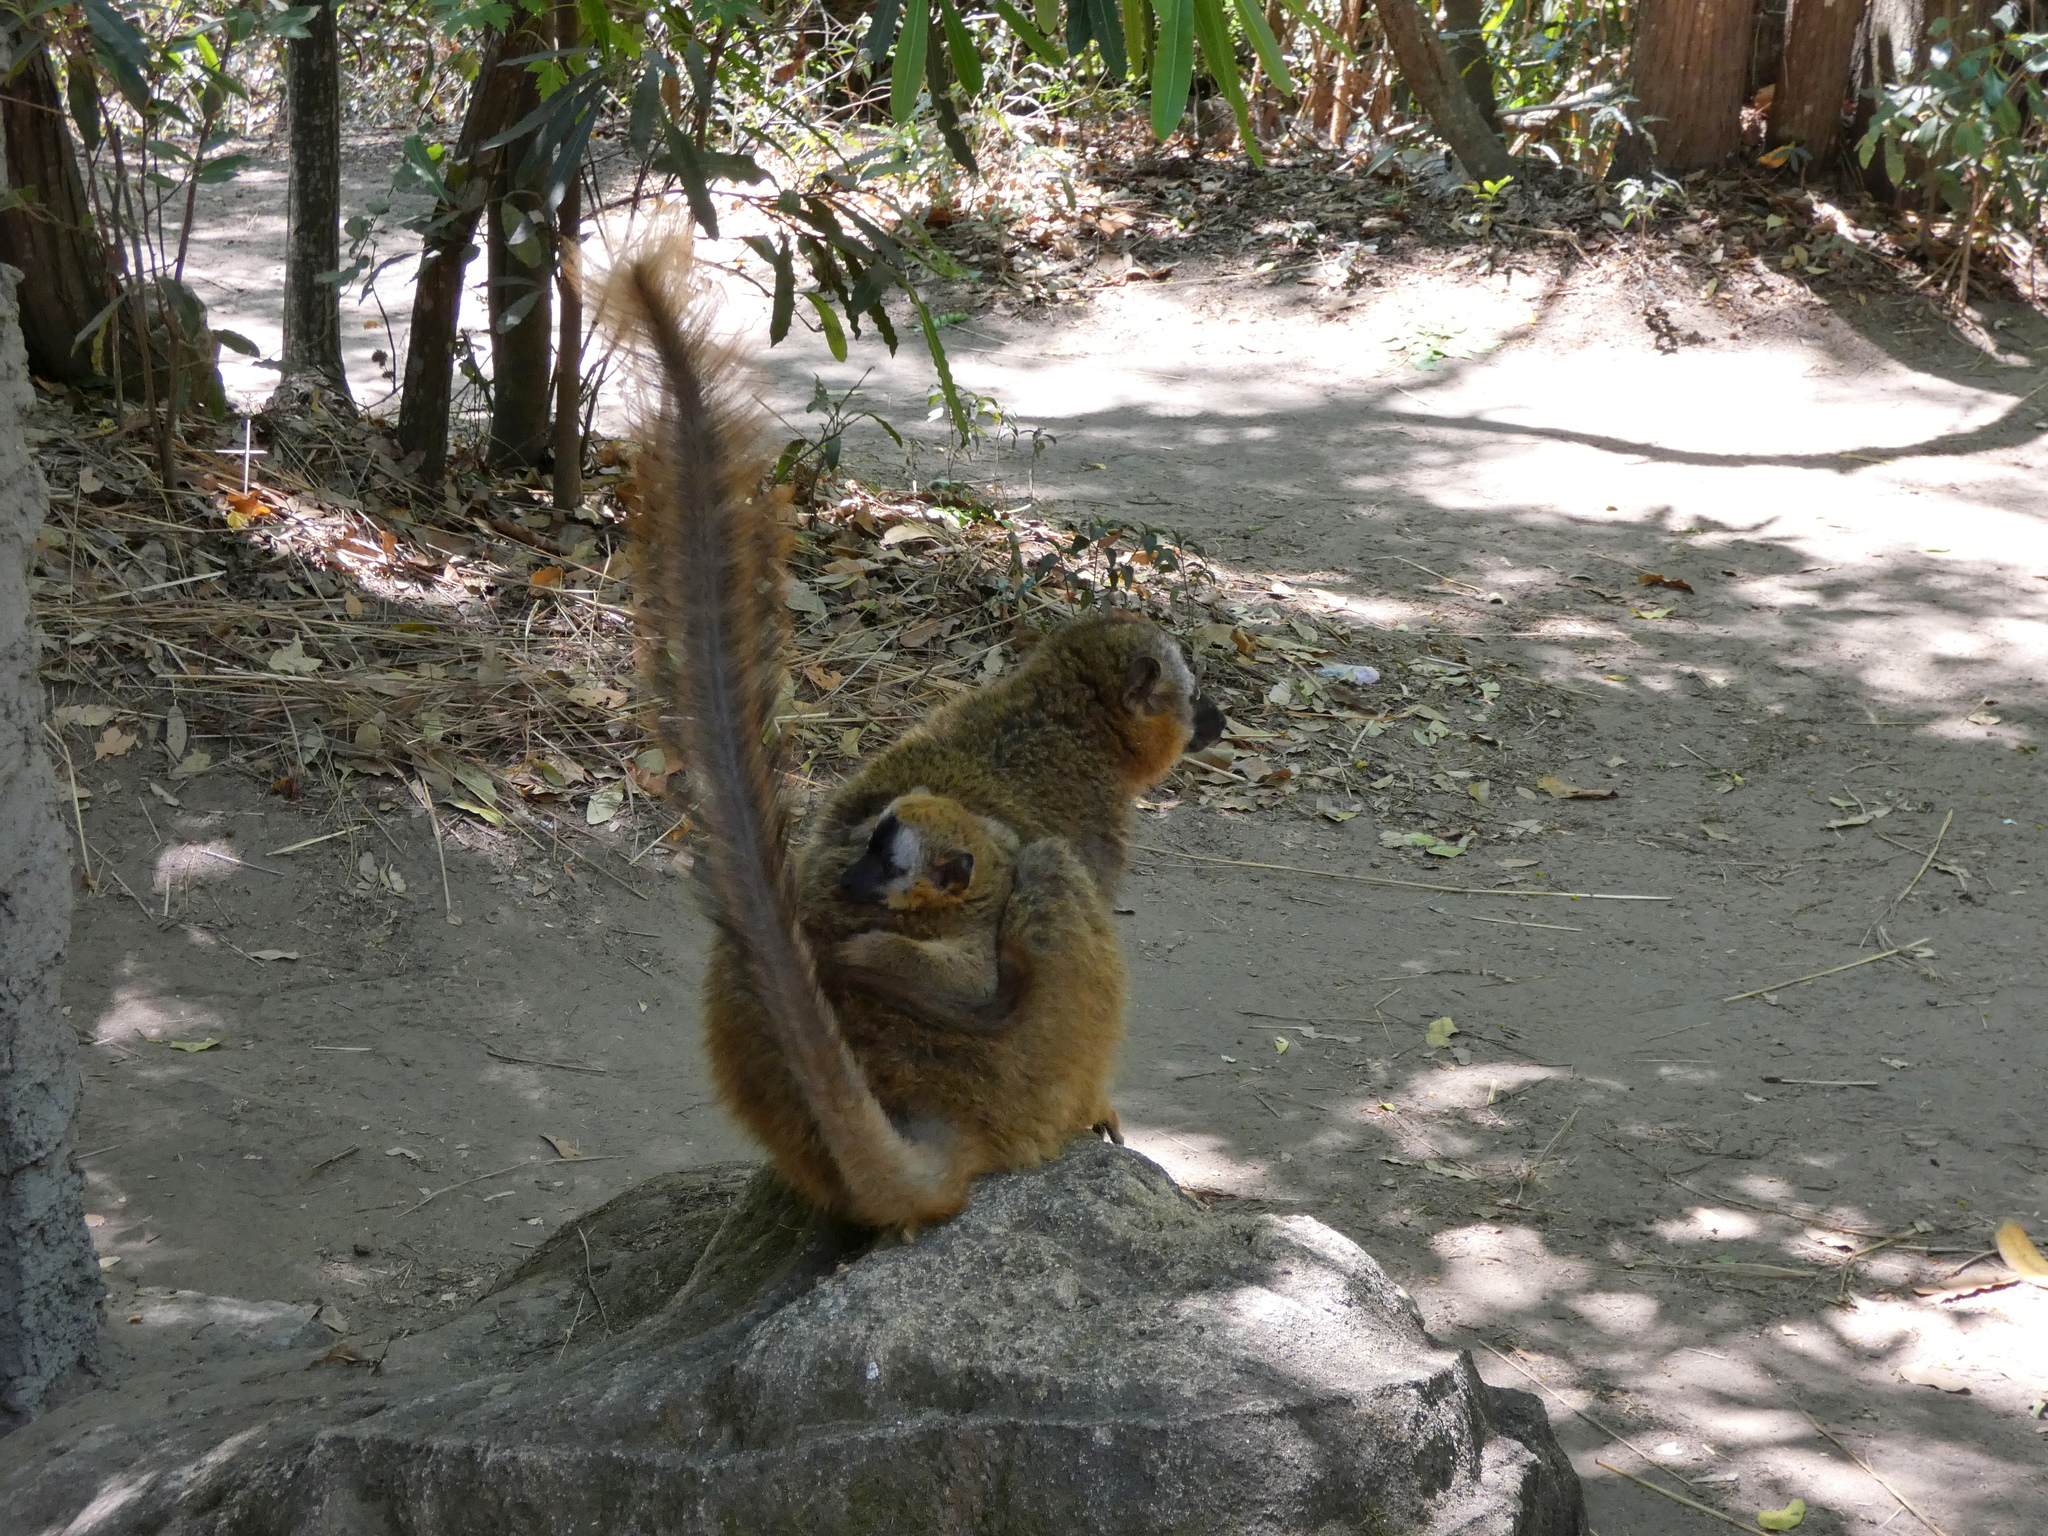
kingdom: Animalia
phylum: Chordata
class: Mammalia
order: Primates
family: Lemuridae
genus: Eulemur
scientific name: Eulemur rufifrons
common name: Red-fronted brown lemur
